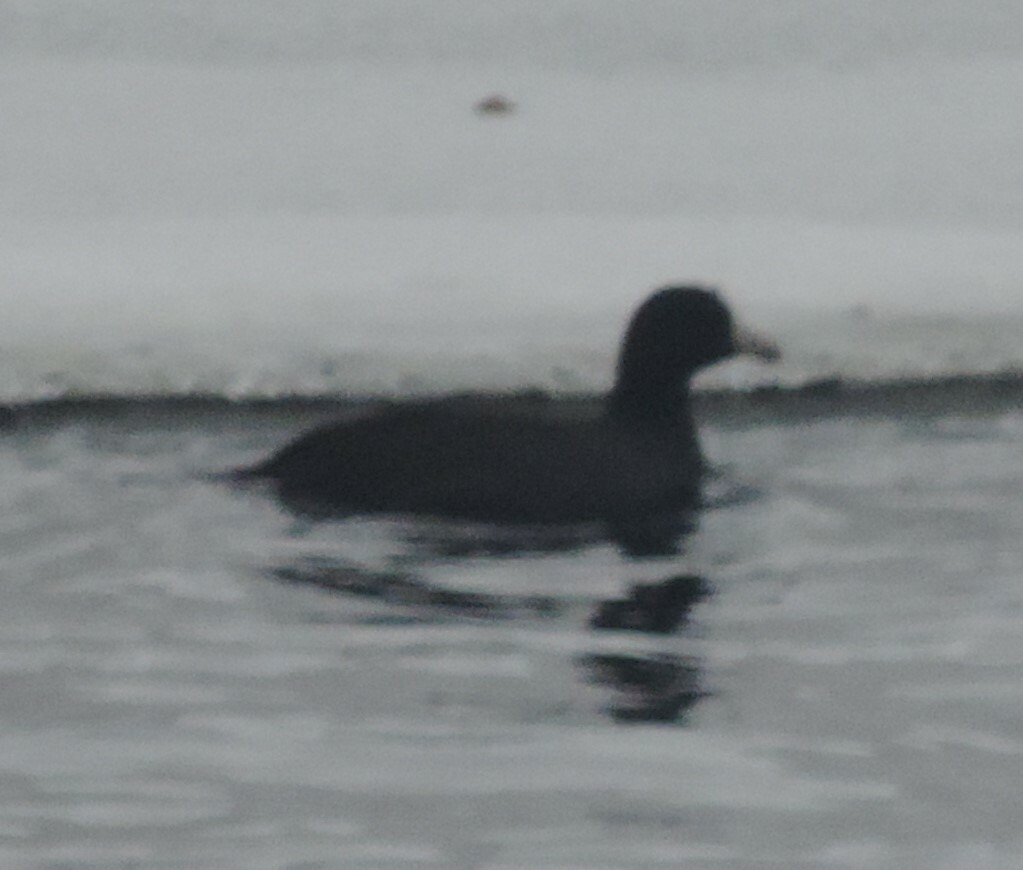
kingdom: Animalia
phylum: Chordata
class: Aves
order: Gruiformes
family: Rallidae
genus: Fulica
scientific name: Fulica americana
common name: American coot
